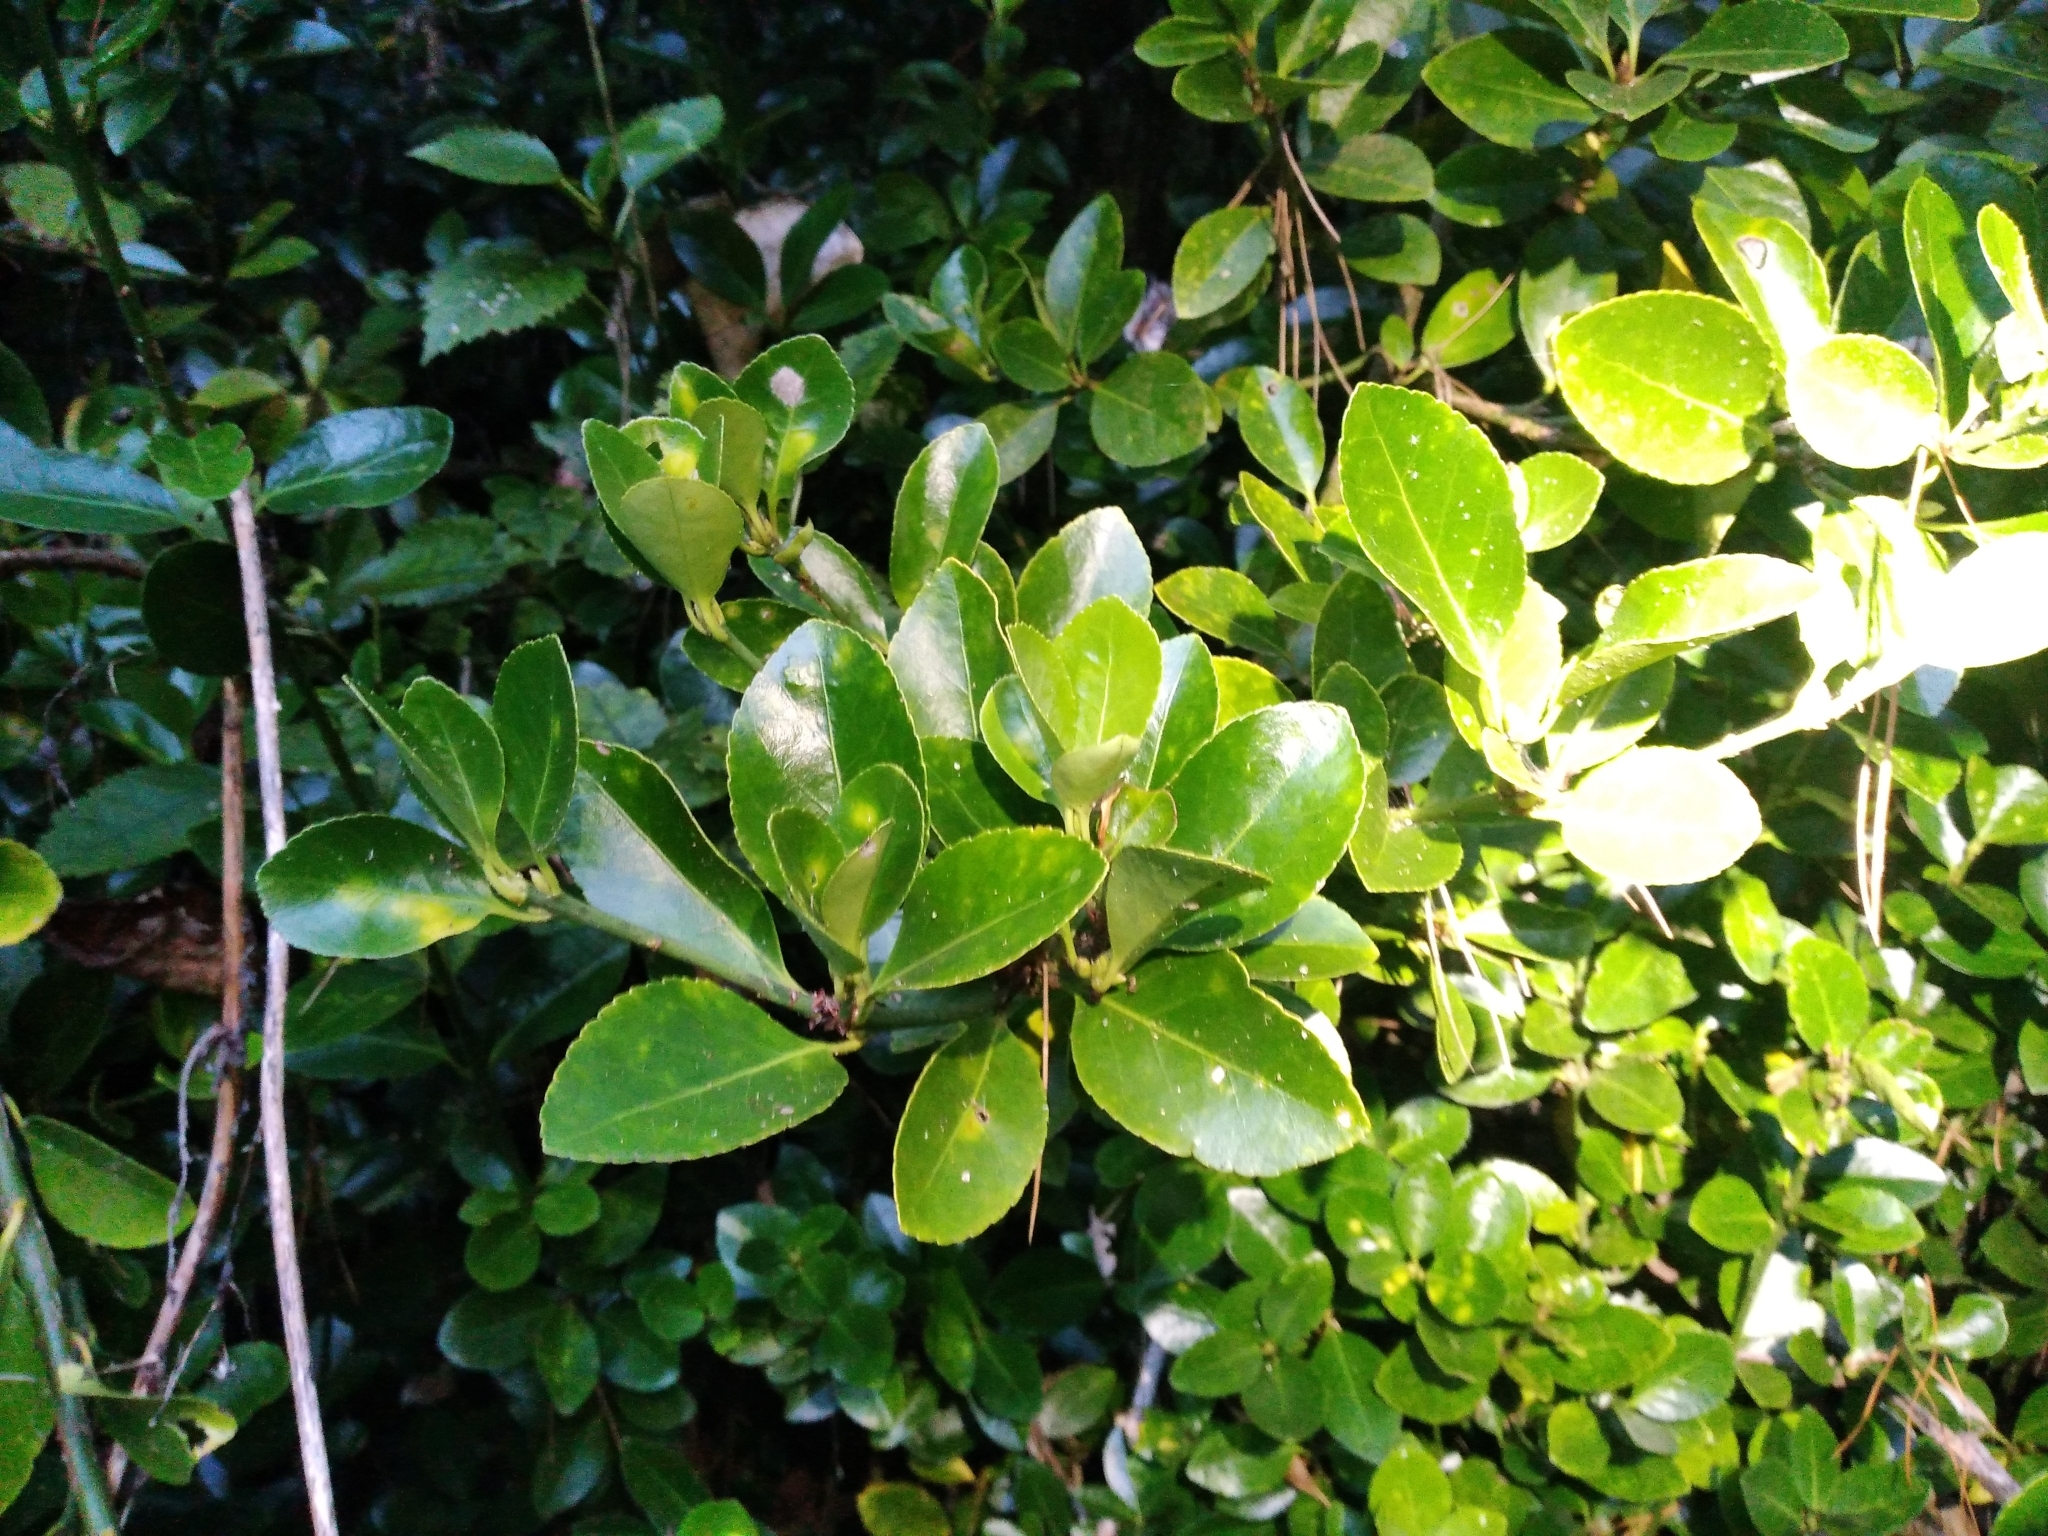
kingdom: Plantae
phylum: Tracheophyta
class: Magnoliopsida
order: Celastrales
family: Celastraceae
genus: Euonymus
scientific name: Euonymus japonicus
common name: Japanese spindletree
